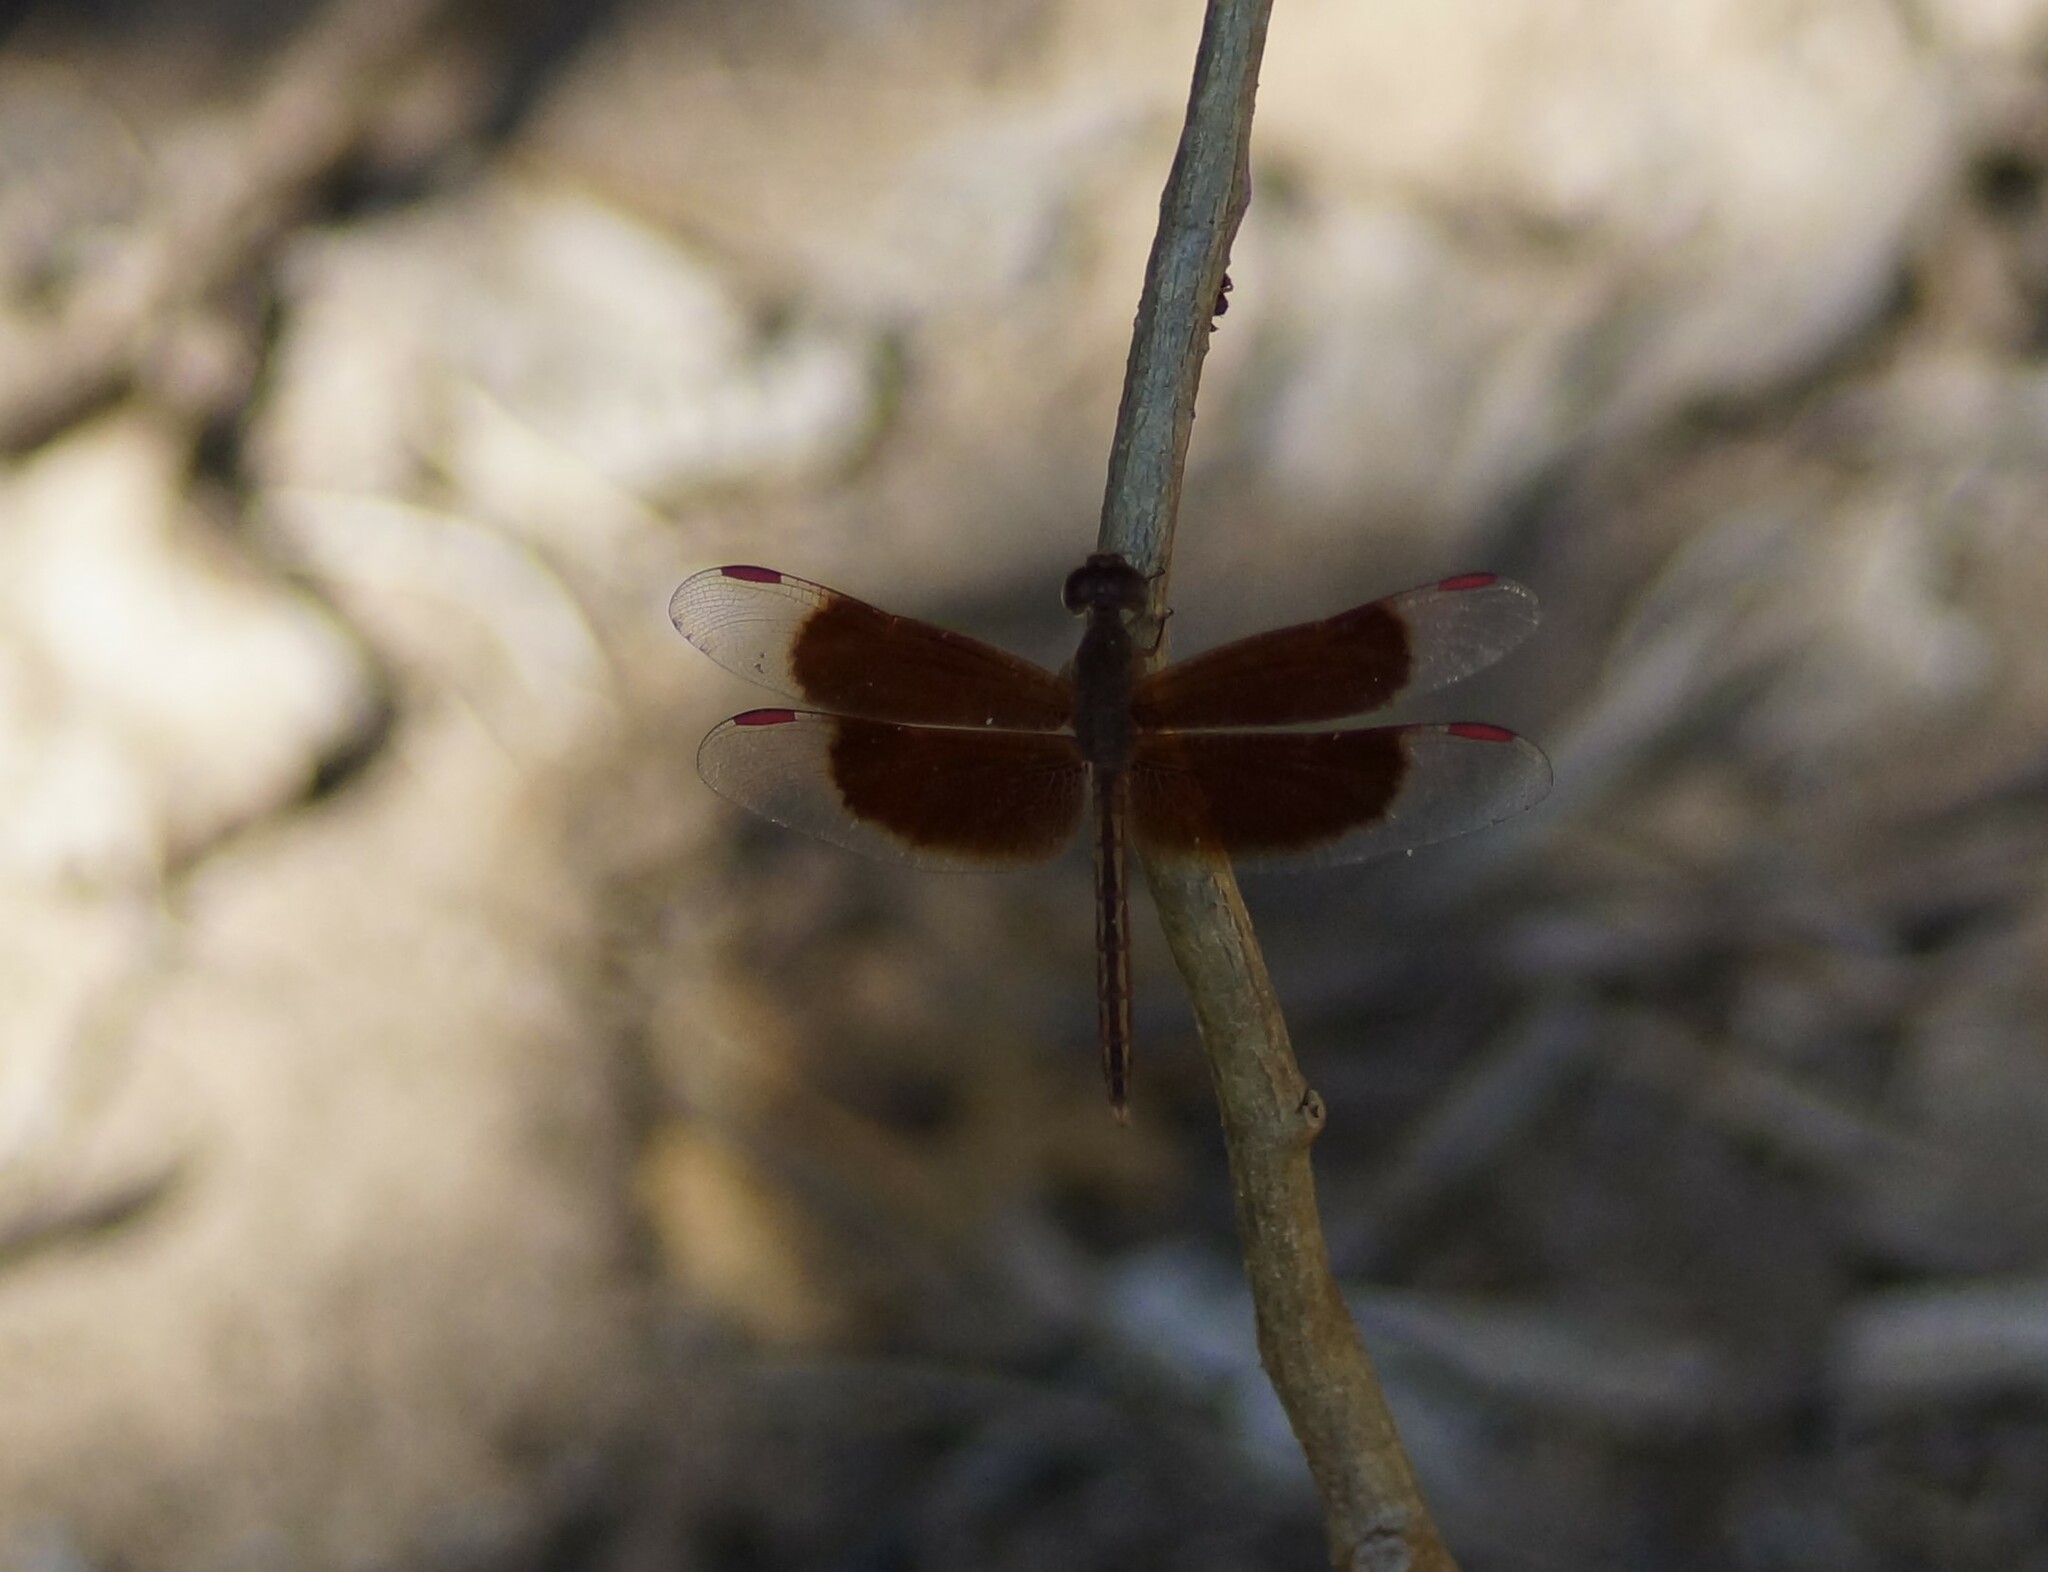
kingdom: Animalia
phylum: Arthropoda
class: Insecta
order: Odonata
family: Libellulidae
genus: Neurothemis
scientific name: Neurothemis stigmatizans
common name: Painted grasshawk
